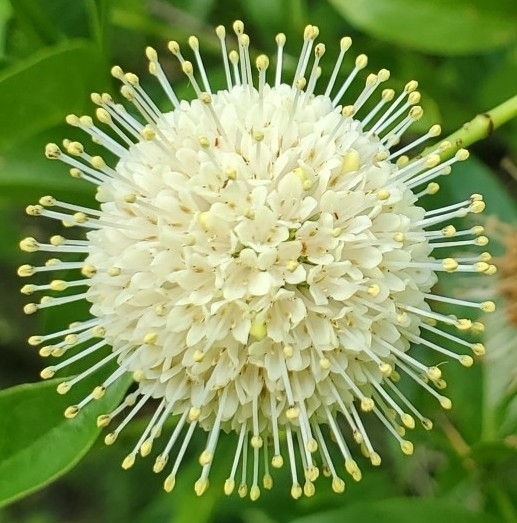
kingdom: Plantae
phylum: Tracheophyta
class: Magnoliopsida
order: Gentianales
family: Rubiaceae
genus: Cephalanthus
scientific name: Cephalanthus occidentalis
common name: Button-willow
